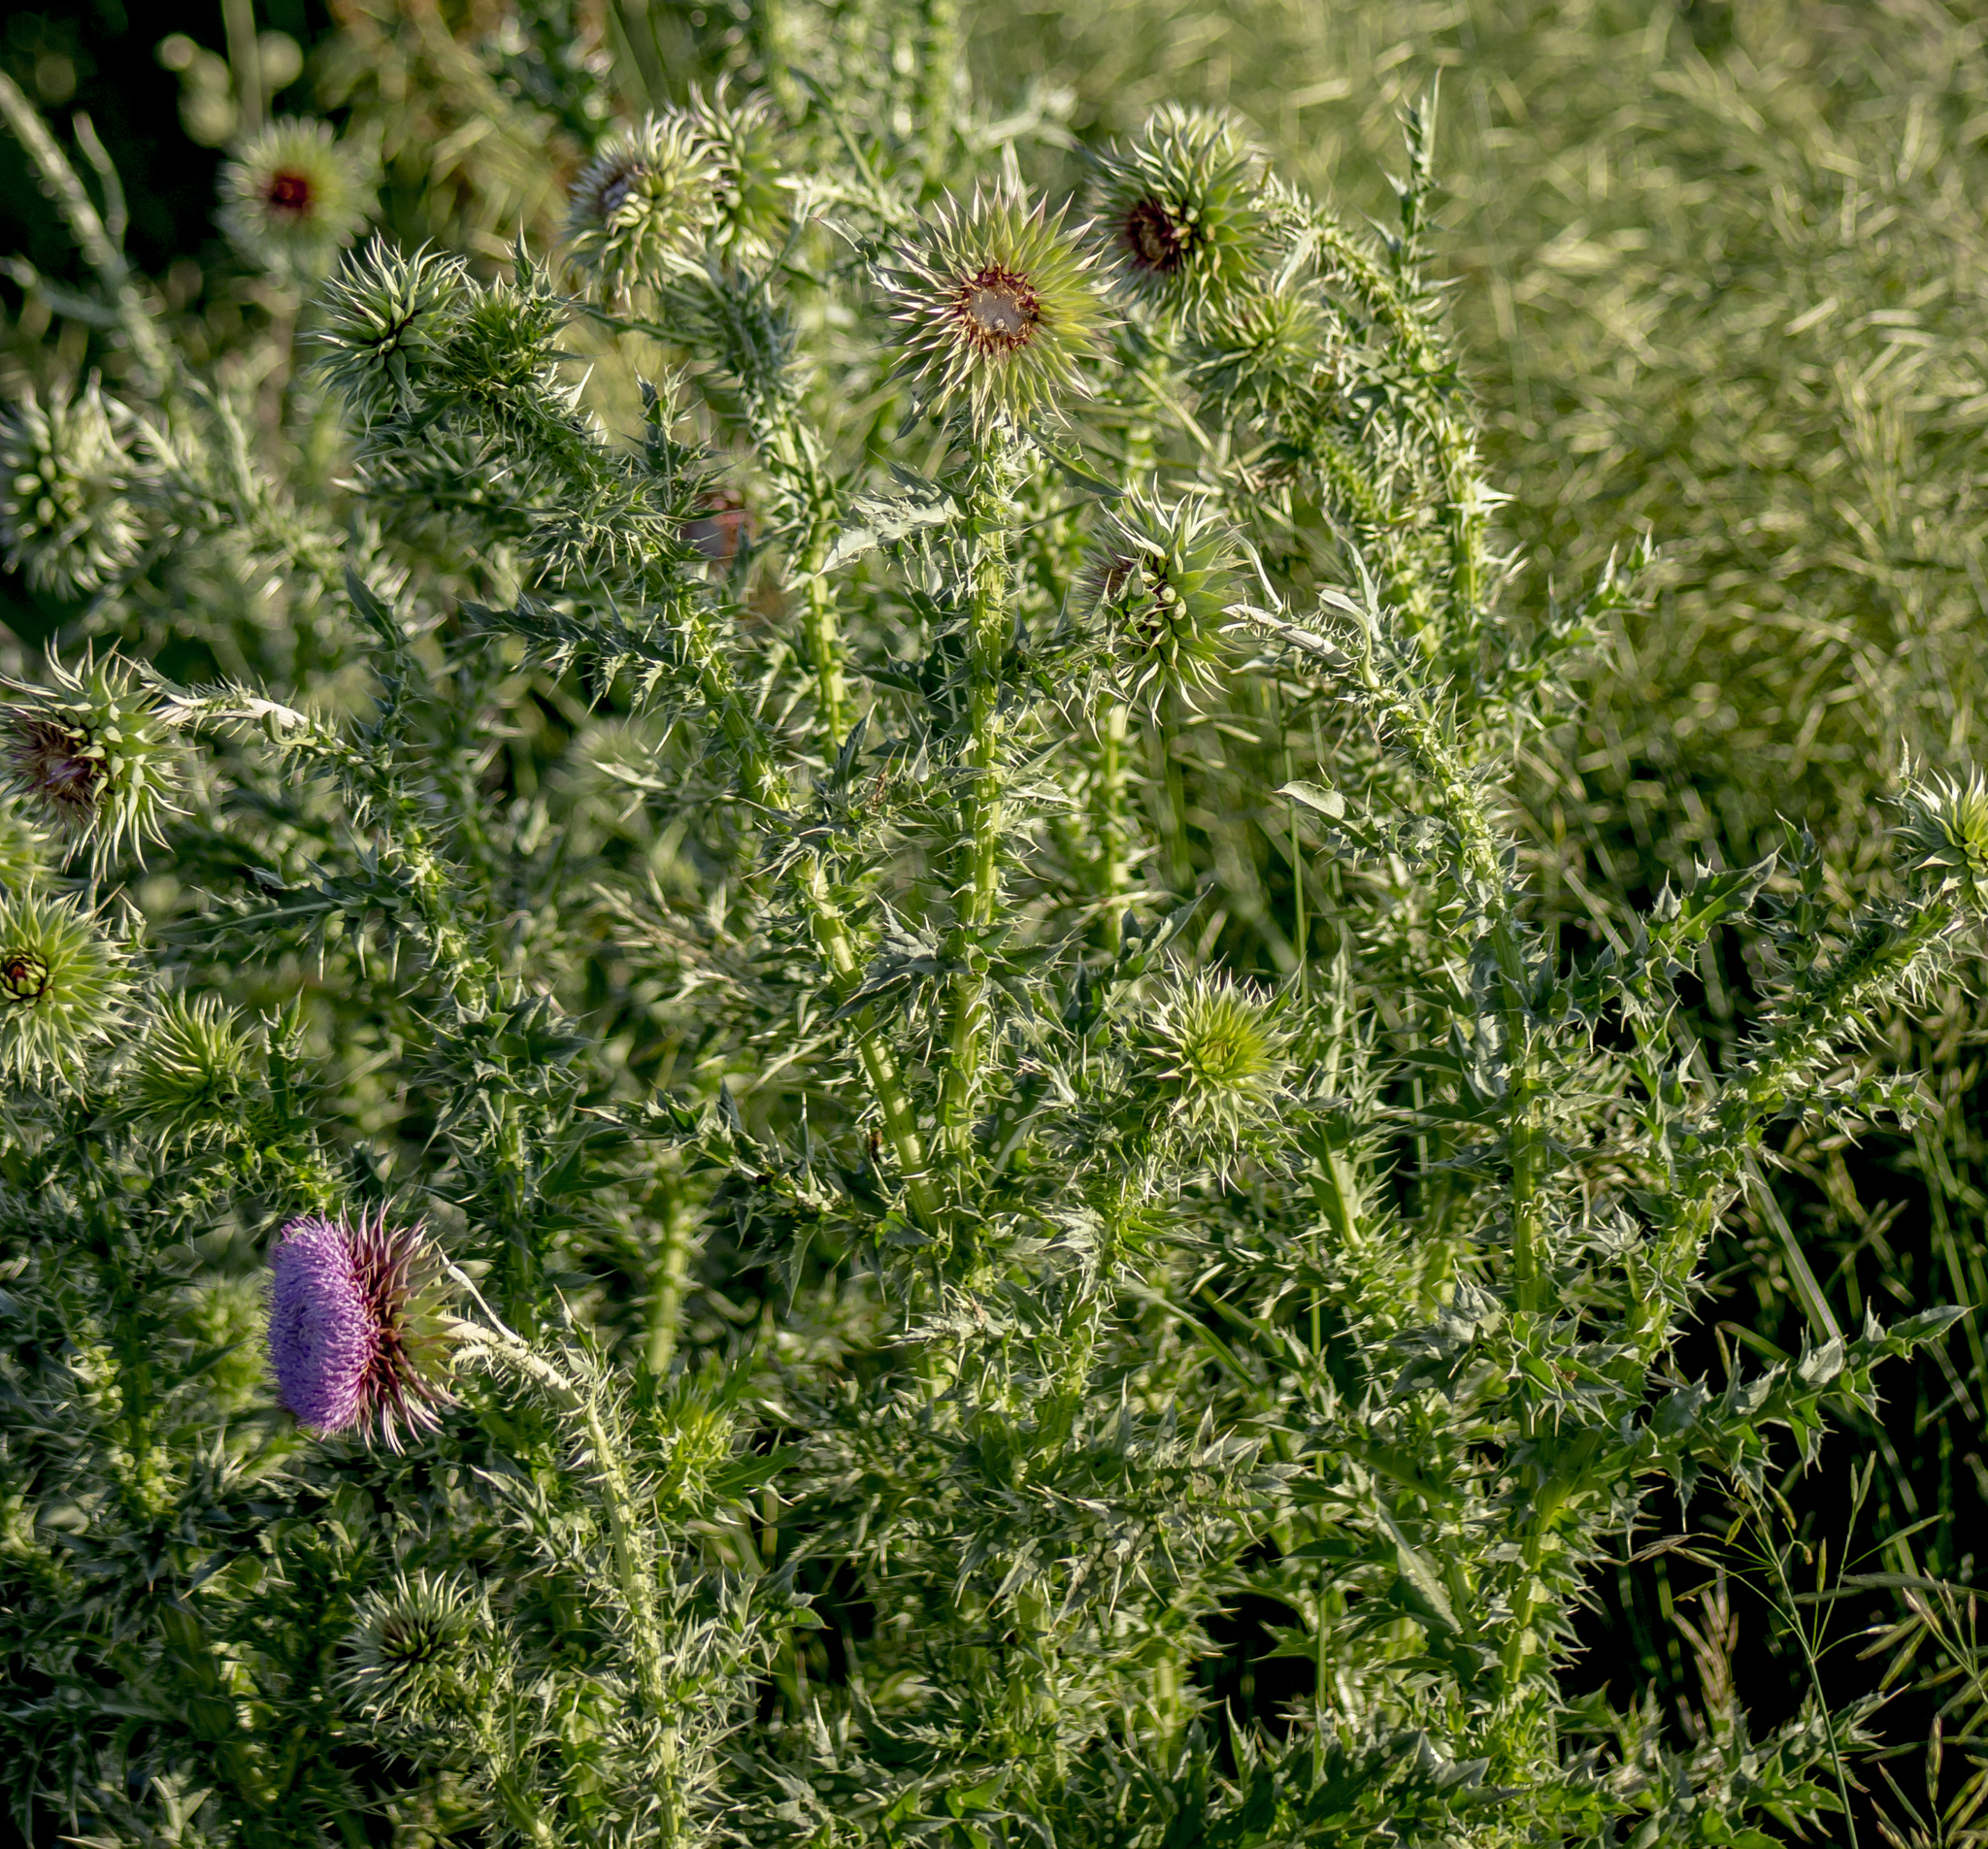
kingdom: Plantae
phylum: Tracheophyta
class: Magnoliopsida
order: Asterales
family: Asteraceae
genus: Carduus
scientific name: Carduus nutans
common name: Musk thistle
